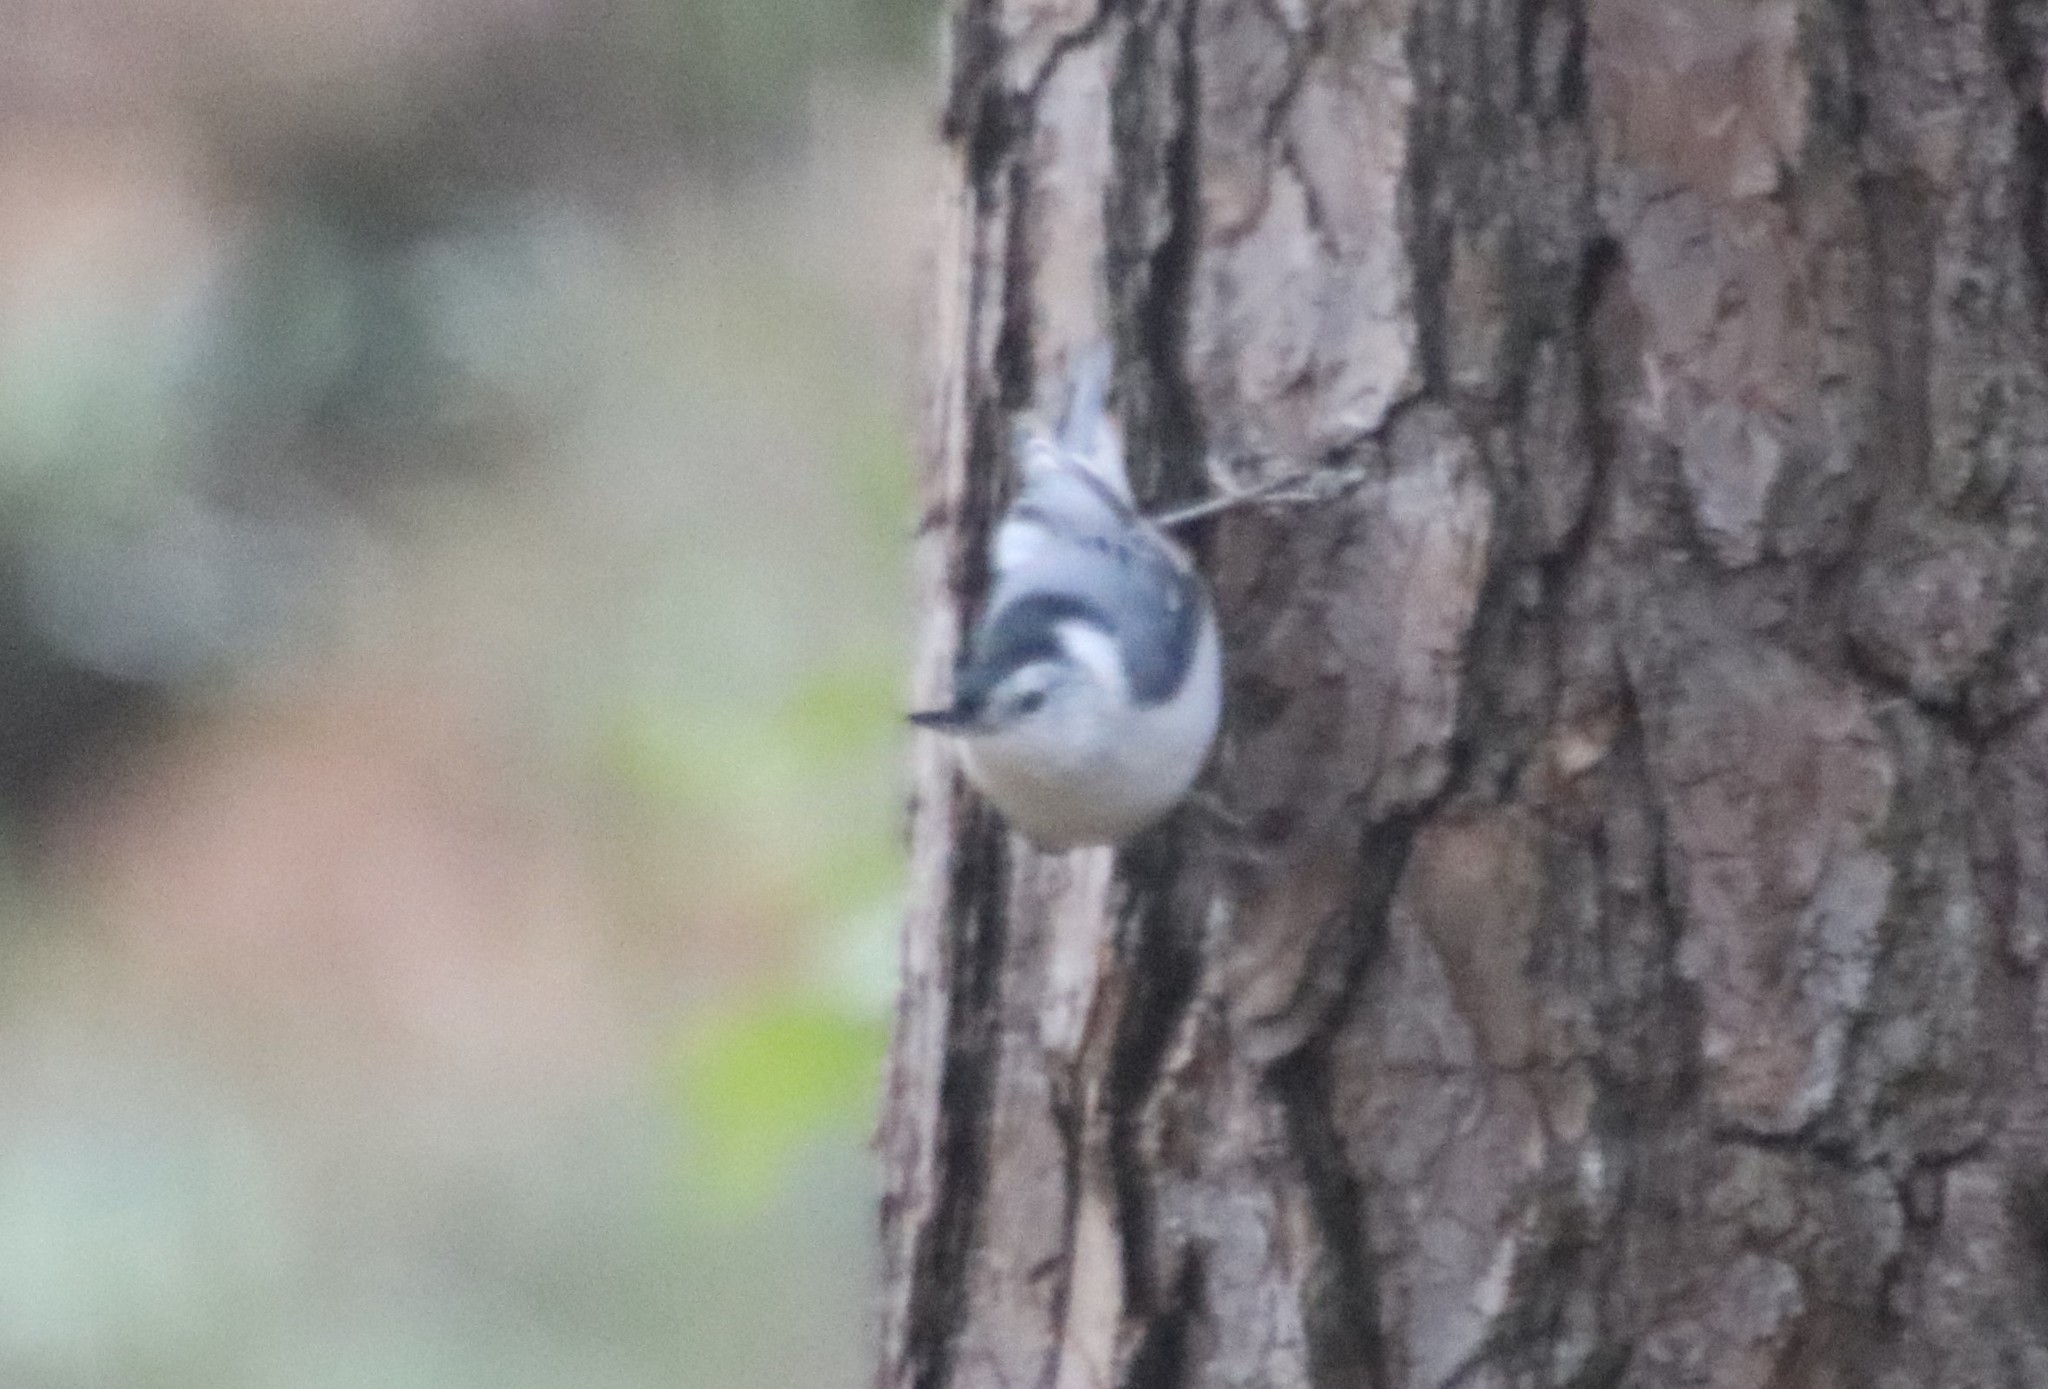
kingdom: Animalia
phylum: Chordata
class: Aves
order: Passeriformes
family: Sittidae
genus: Sitta
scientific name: Sitta carolinensis
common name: White-breasted nuthatch
